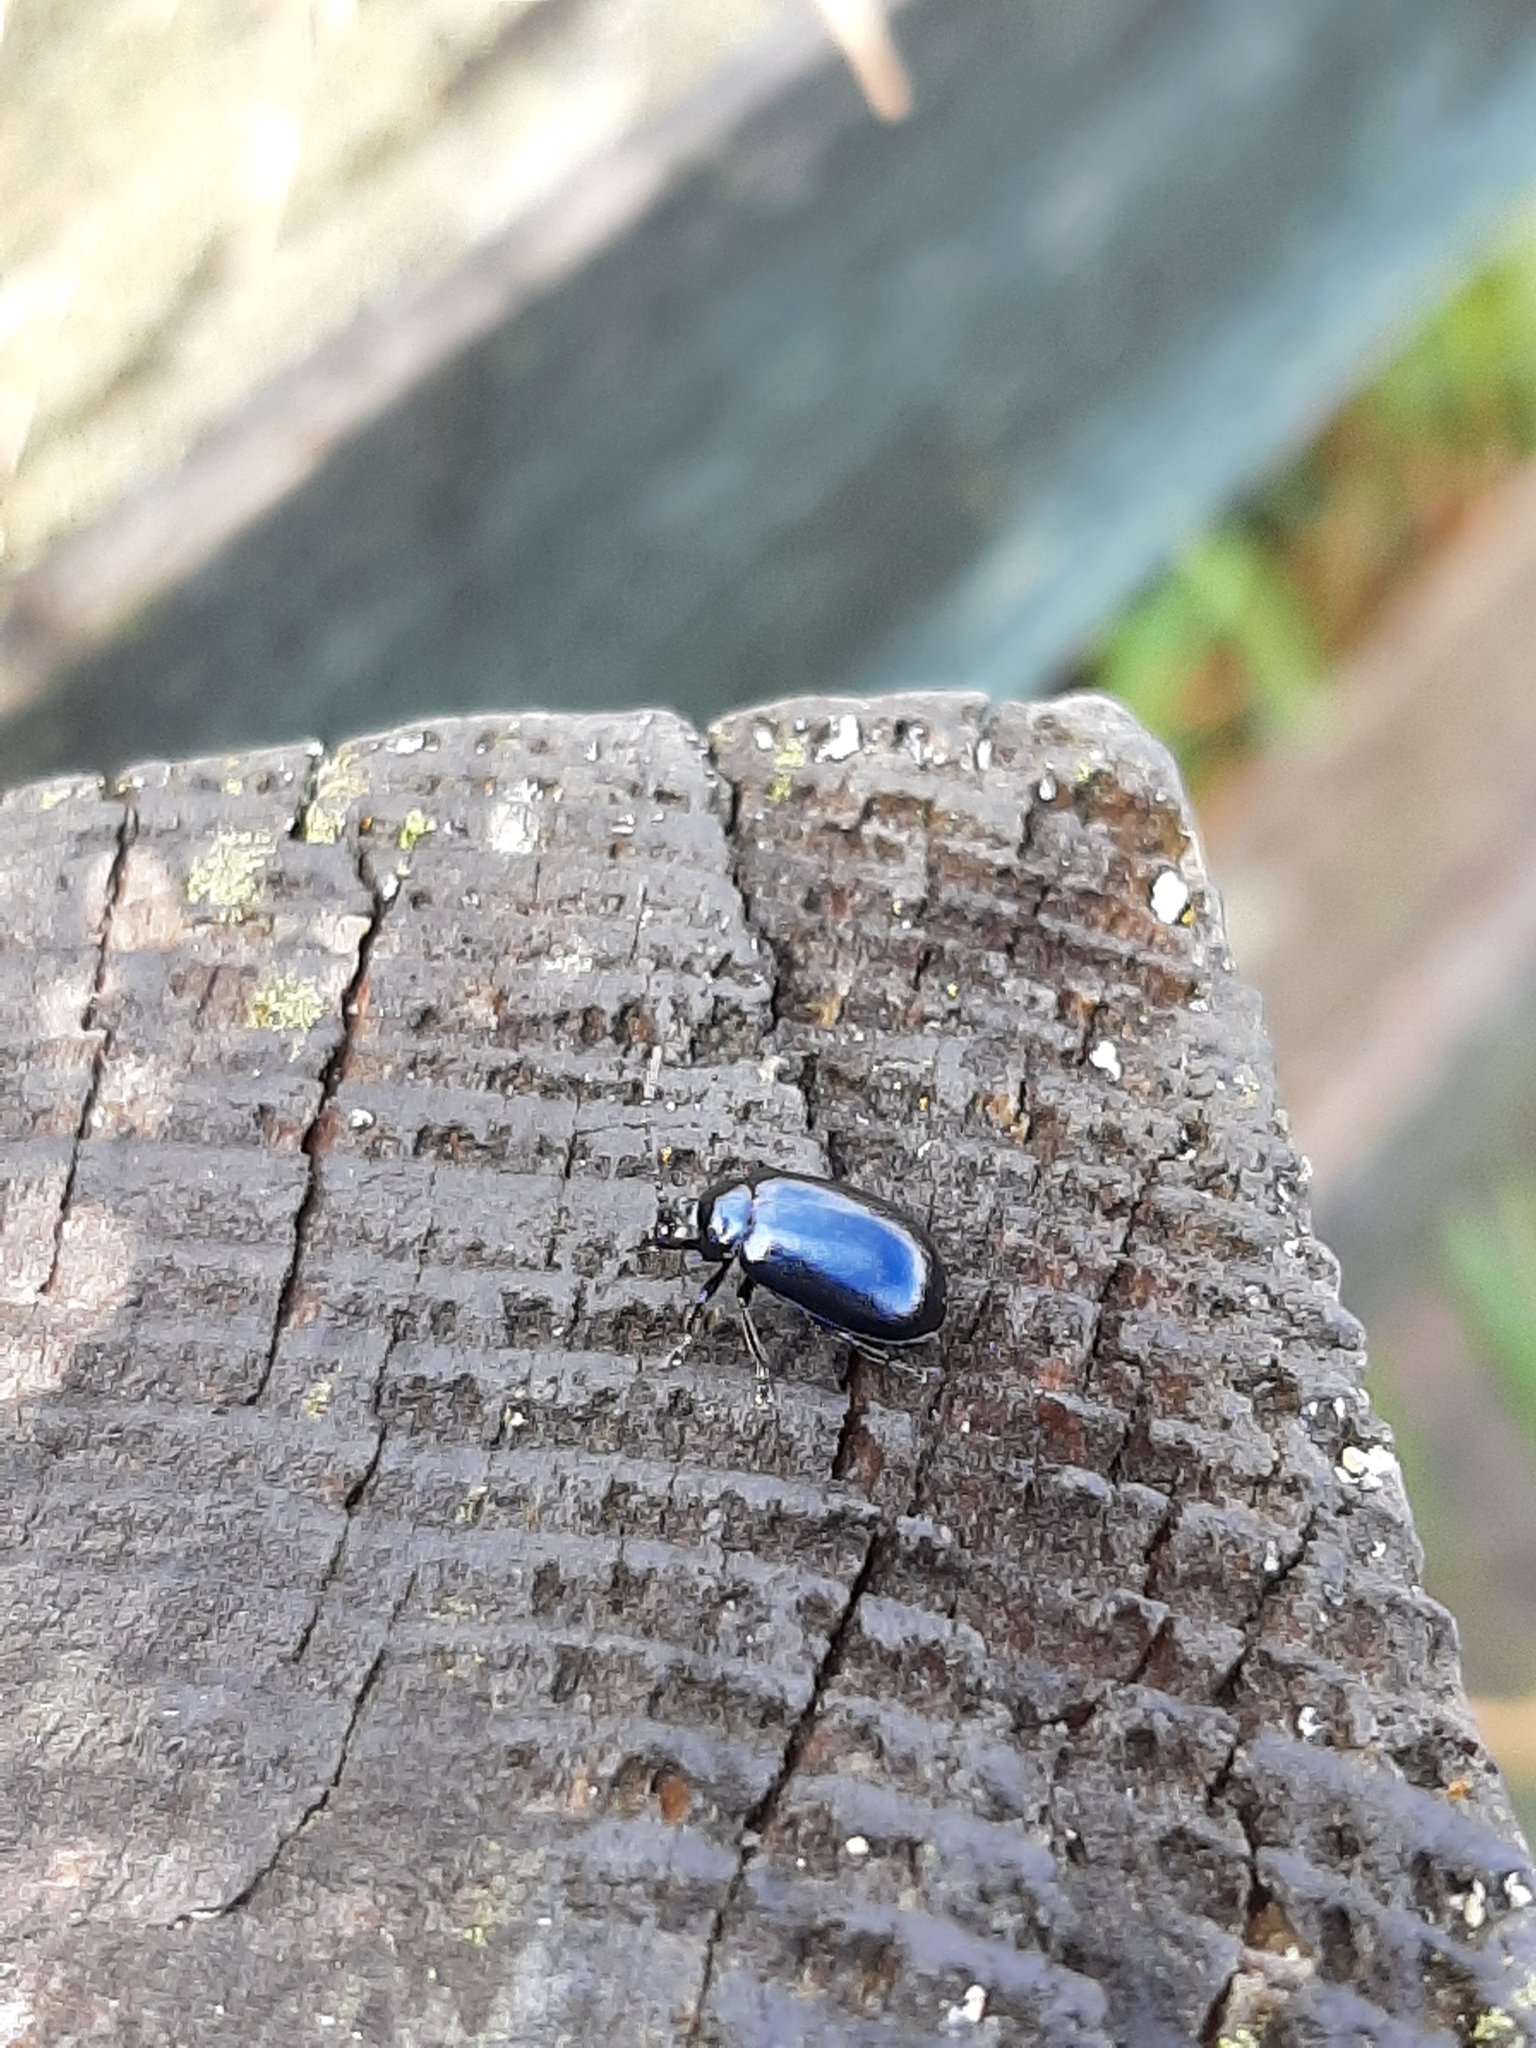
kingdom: Animalia
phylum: Arthropoda
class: Insecta
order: Coleoptera
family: Chrysomelidae
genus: Agelastica
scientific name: Agelastica alni
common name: Alder leaf beetle
